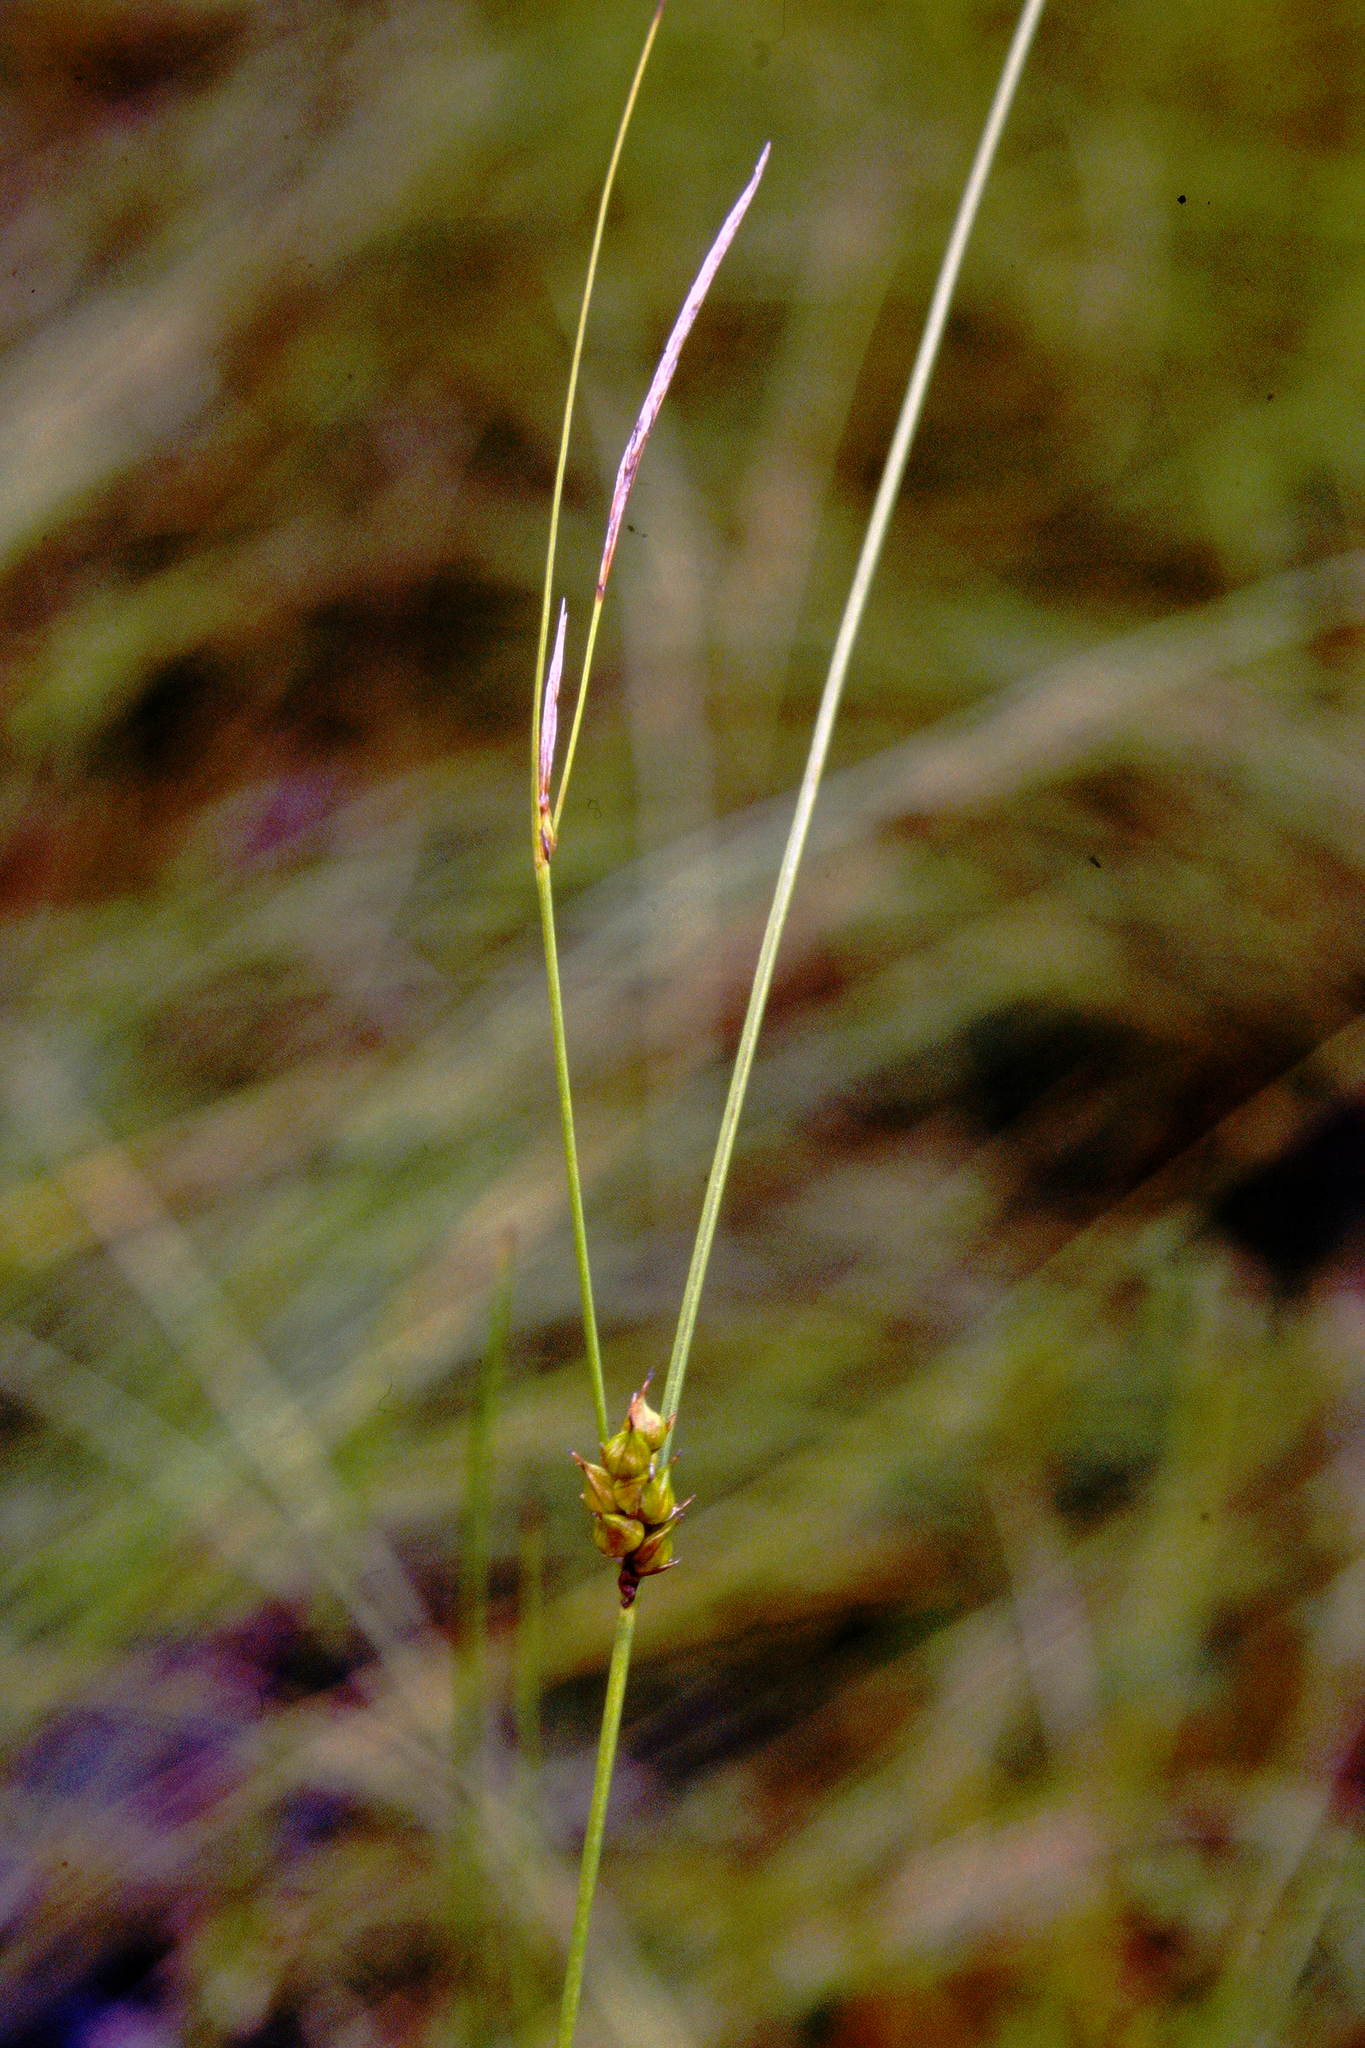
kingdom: Plantae
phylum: Tracheophyta
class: Liliopsida
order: Poales
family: Cyperaceae
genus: Carex
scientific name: Carex oligosperma
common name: Few-seed sedge
